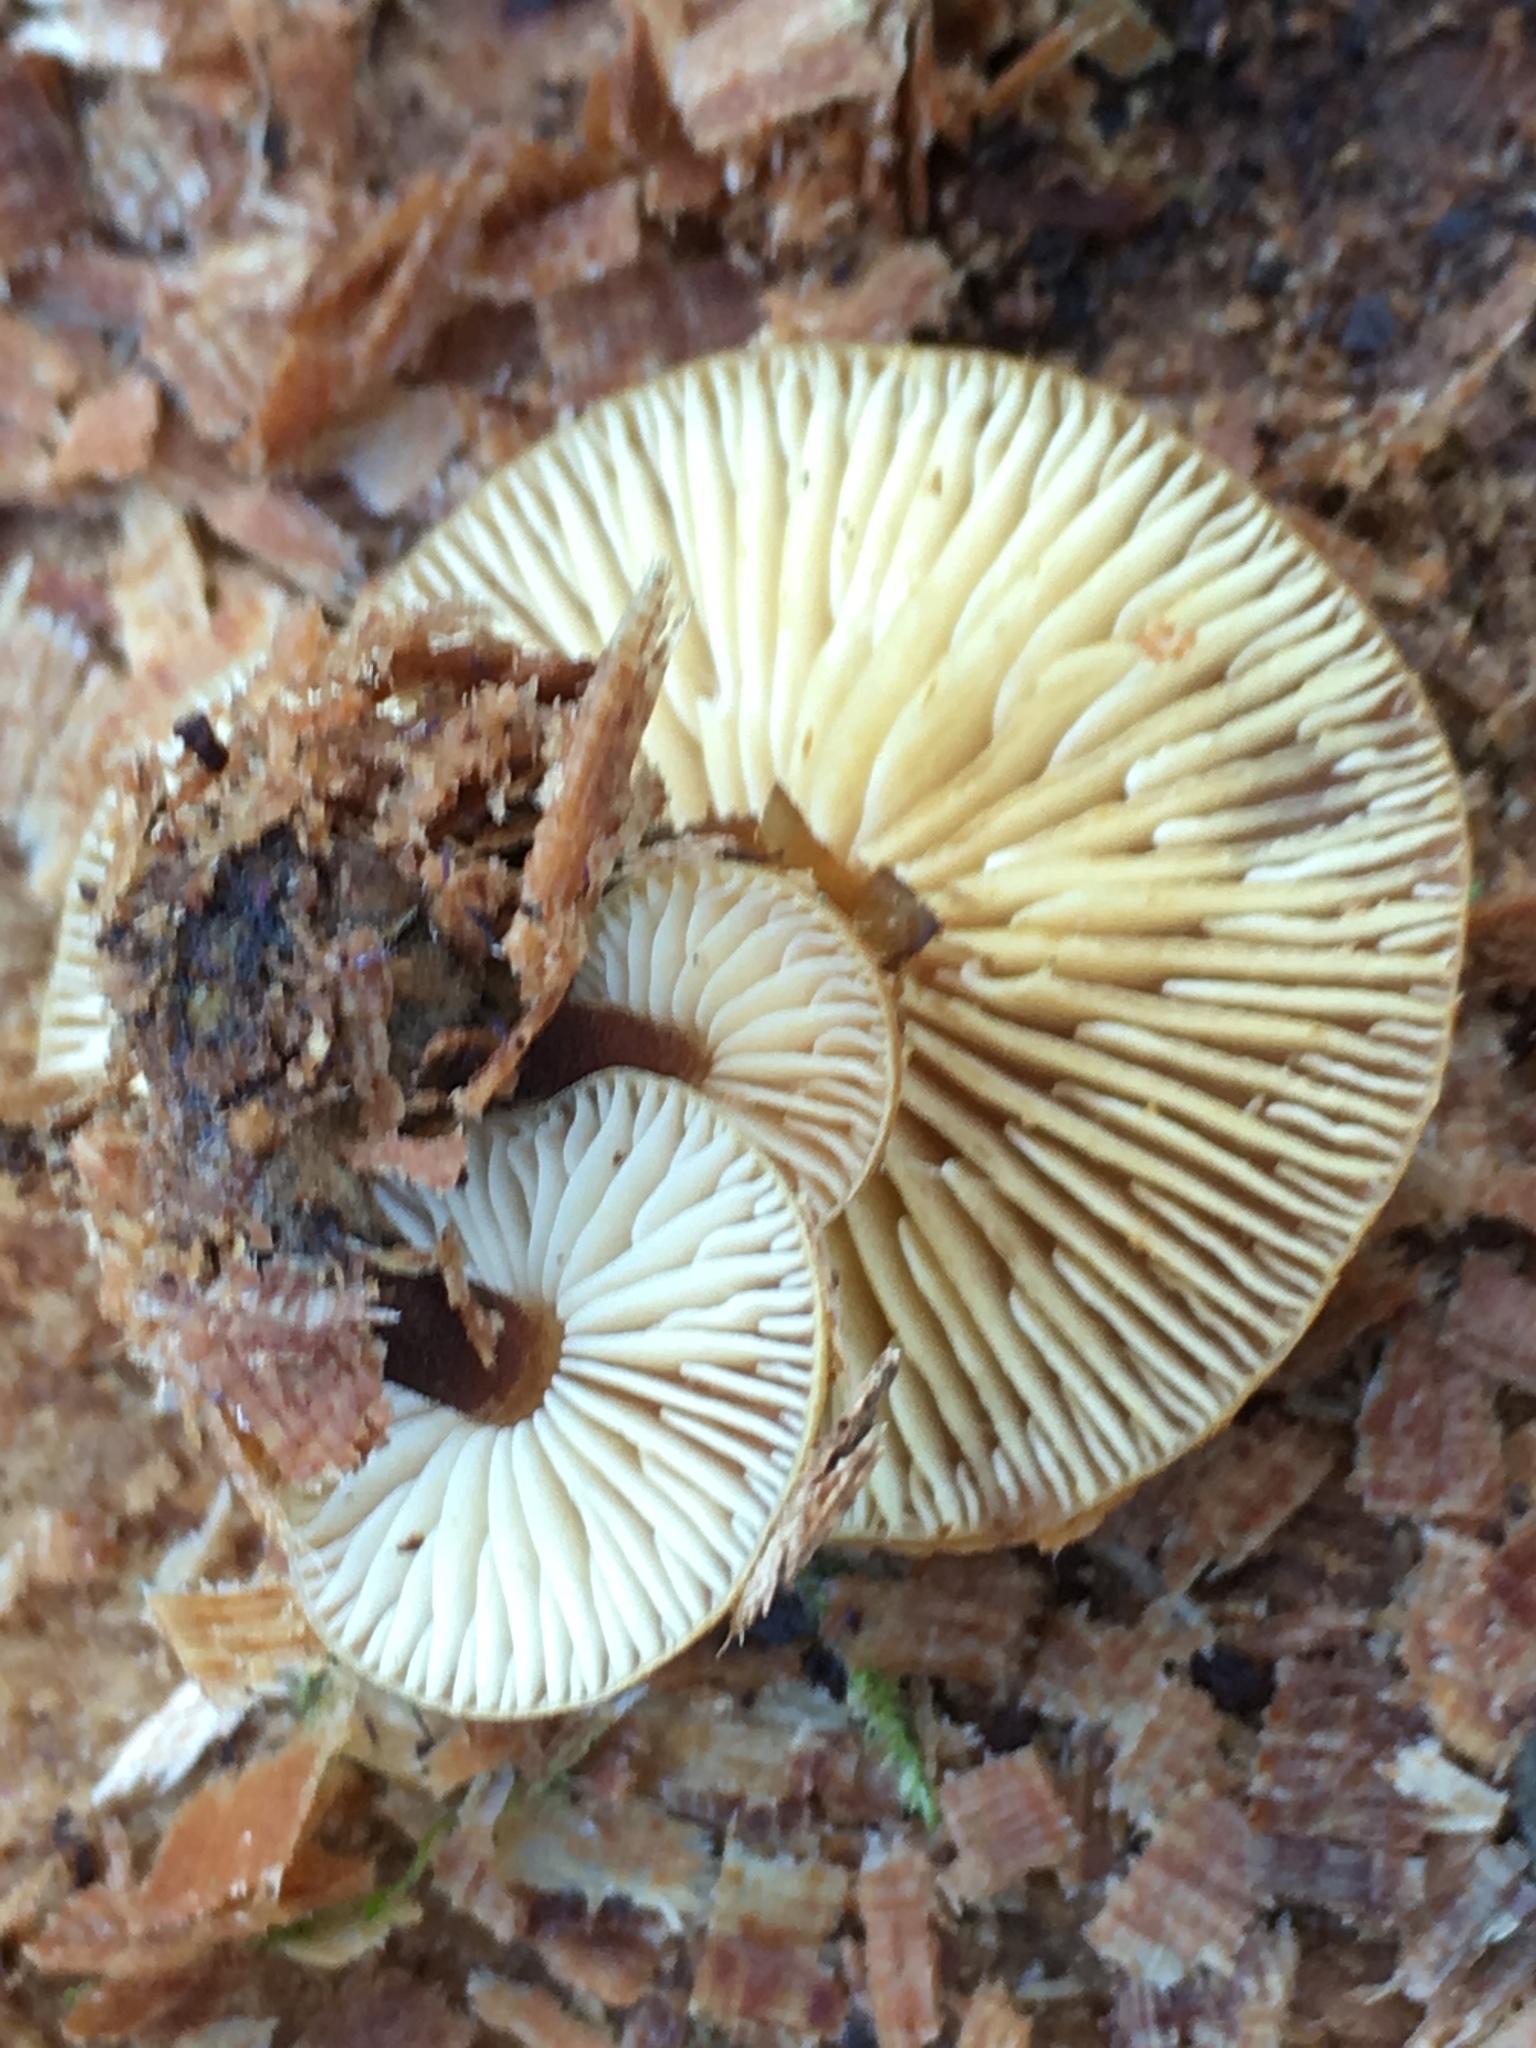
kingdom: Fungi
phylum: Basidiomycota
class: Agaricomycetes
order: Agaricales
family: Physalacriaceae
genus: Flammulina
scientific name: Flammulina
